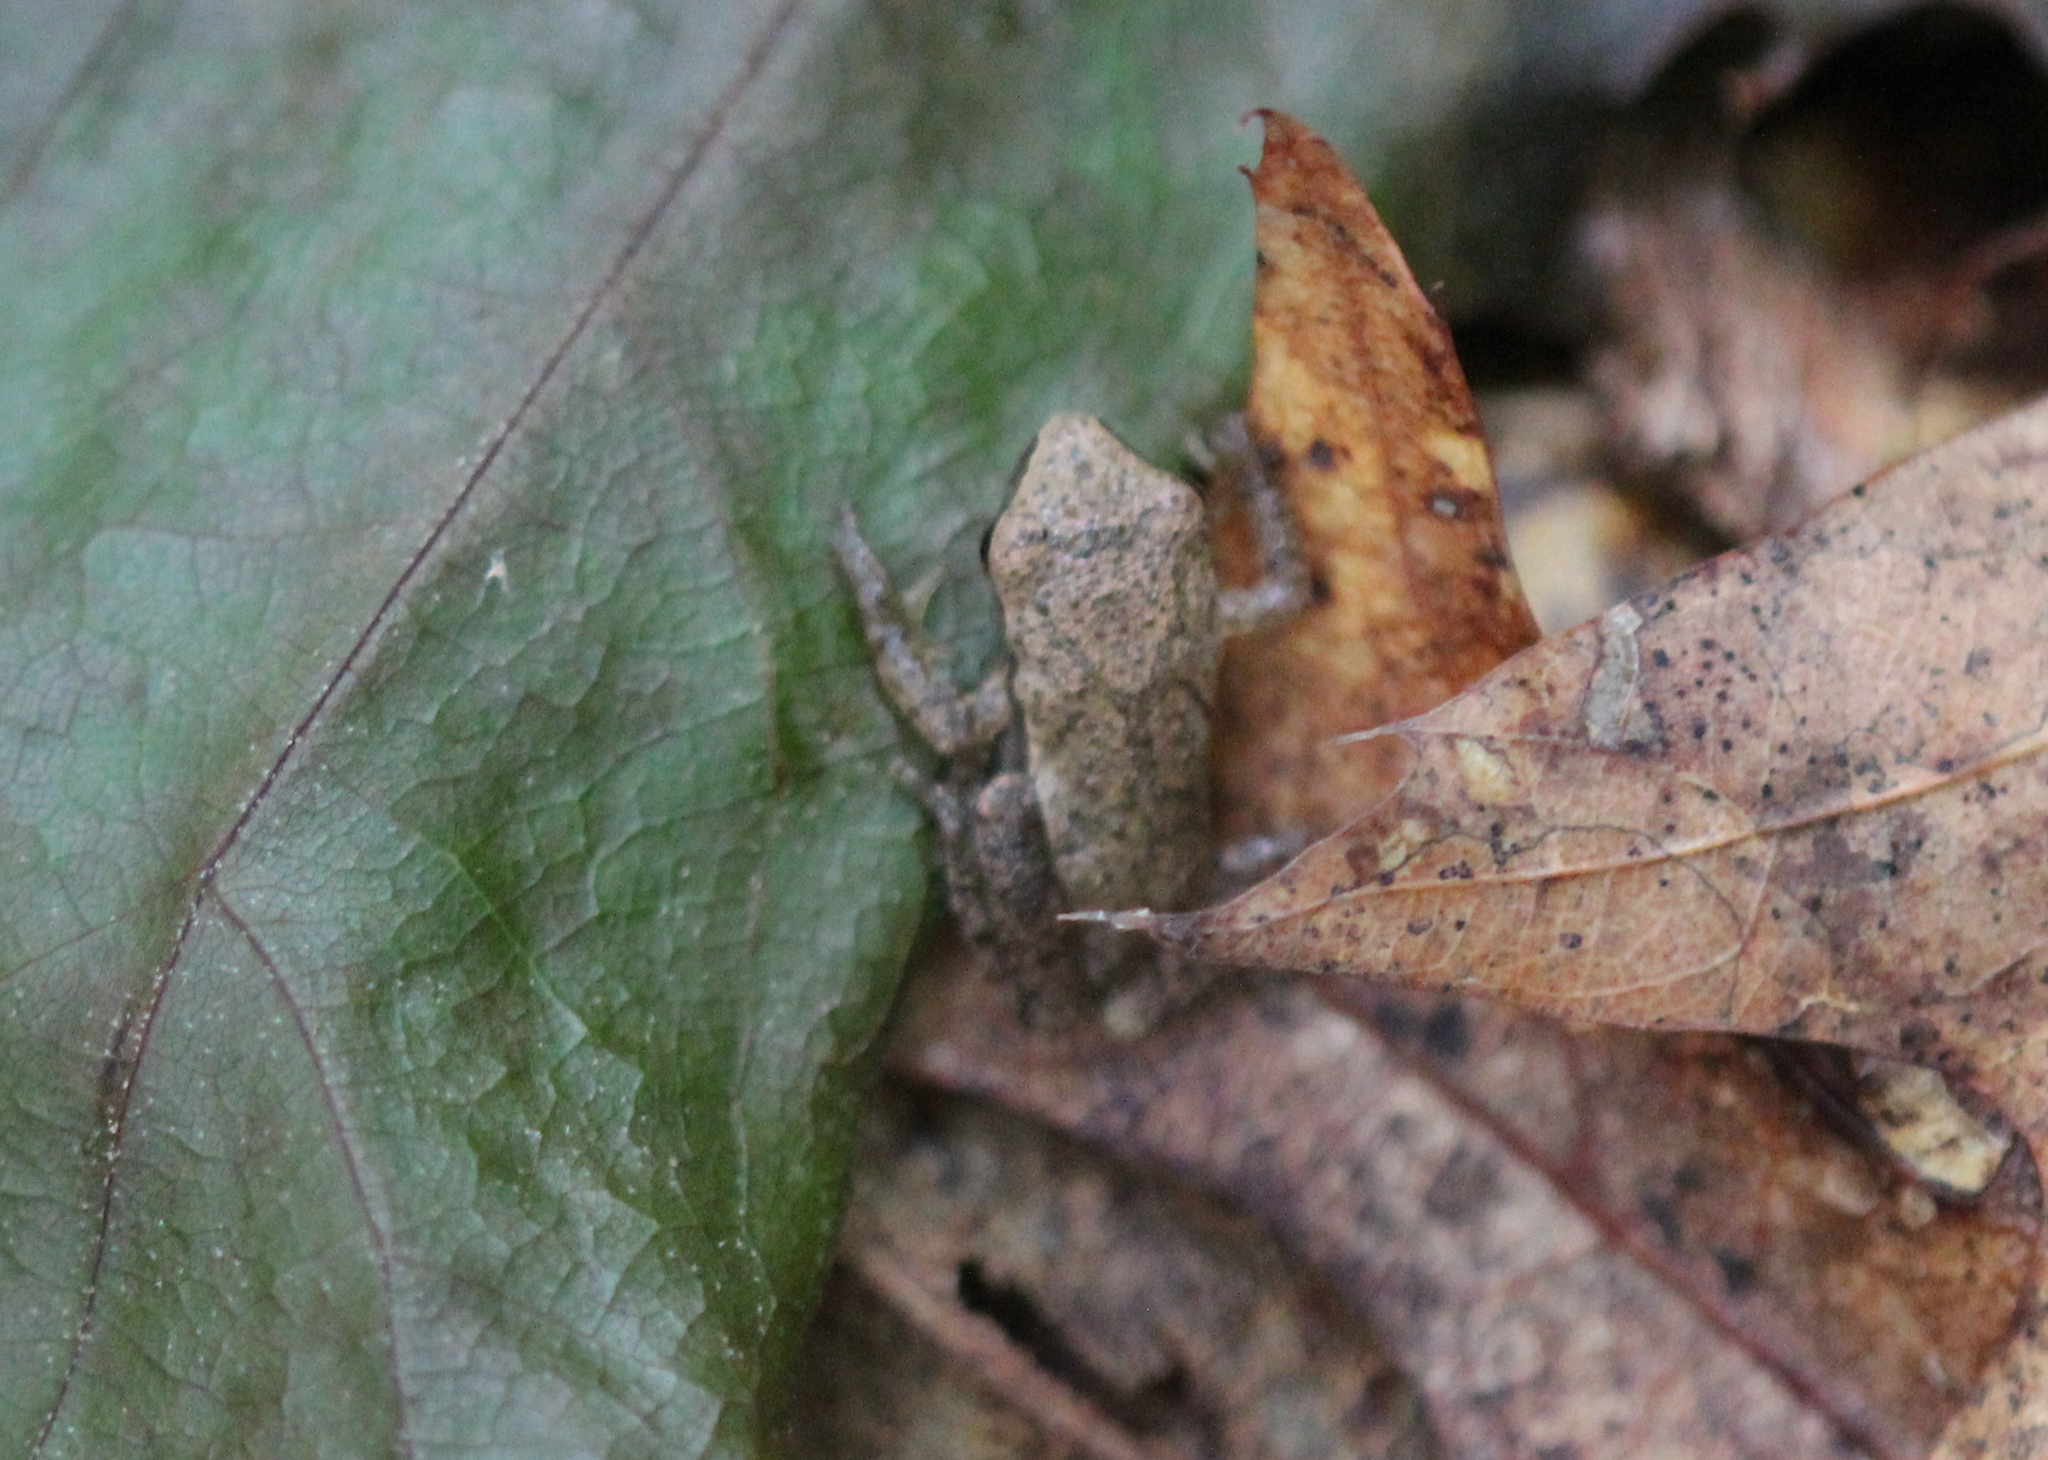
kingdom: Animalia
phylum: Chordata
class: Amphibia
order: Anura
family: Hylidae
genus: Pseudacris
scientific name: Pseudacris crucifer
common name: Spring peeper
